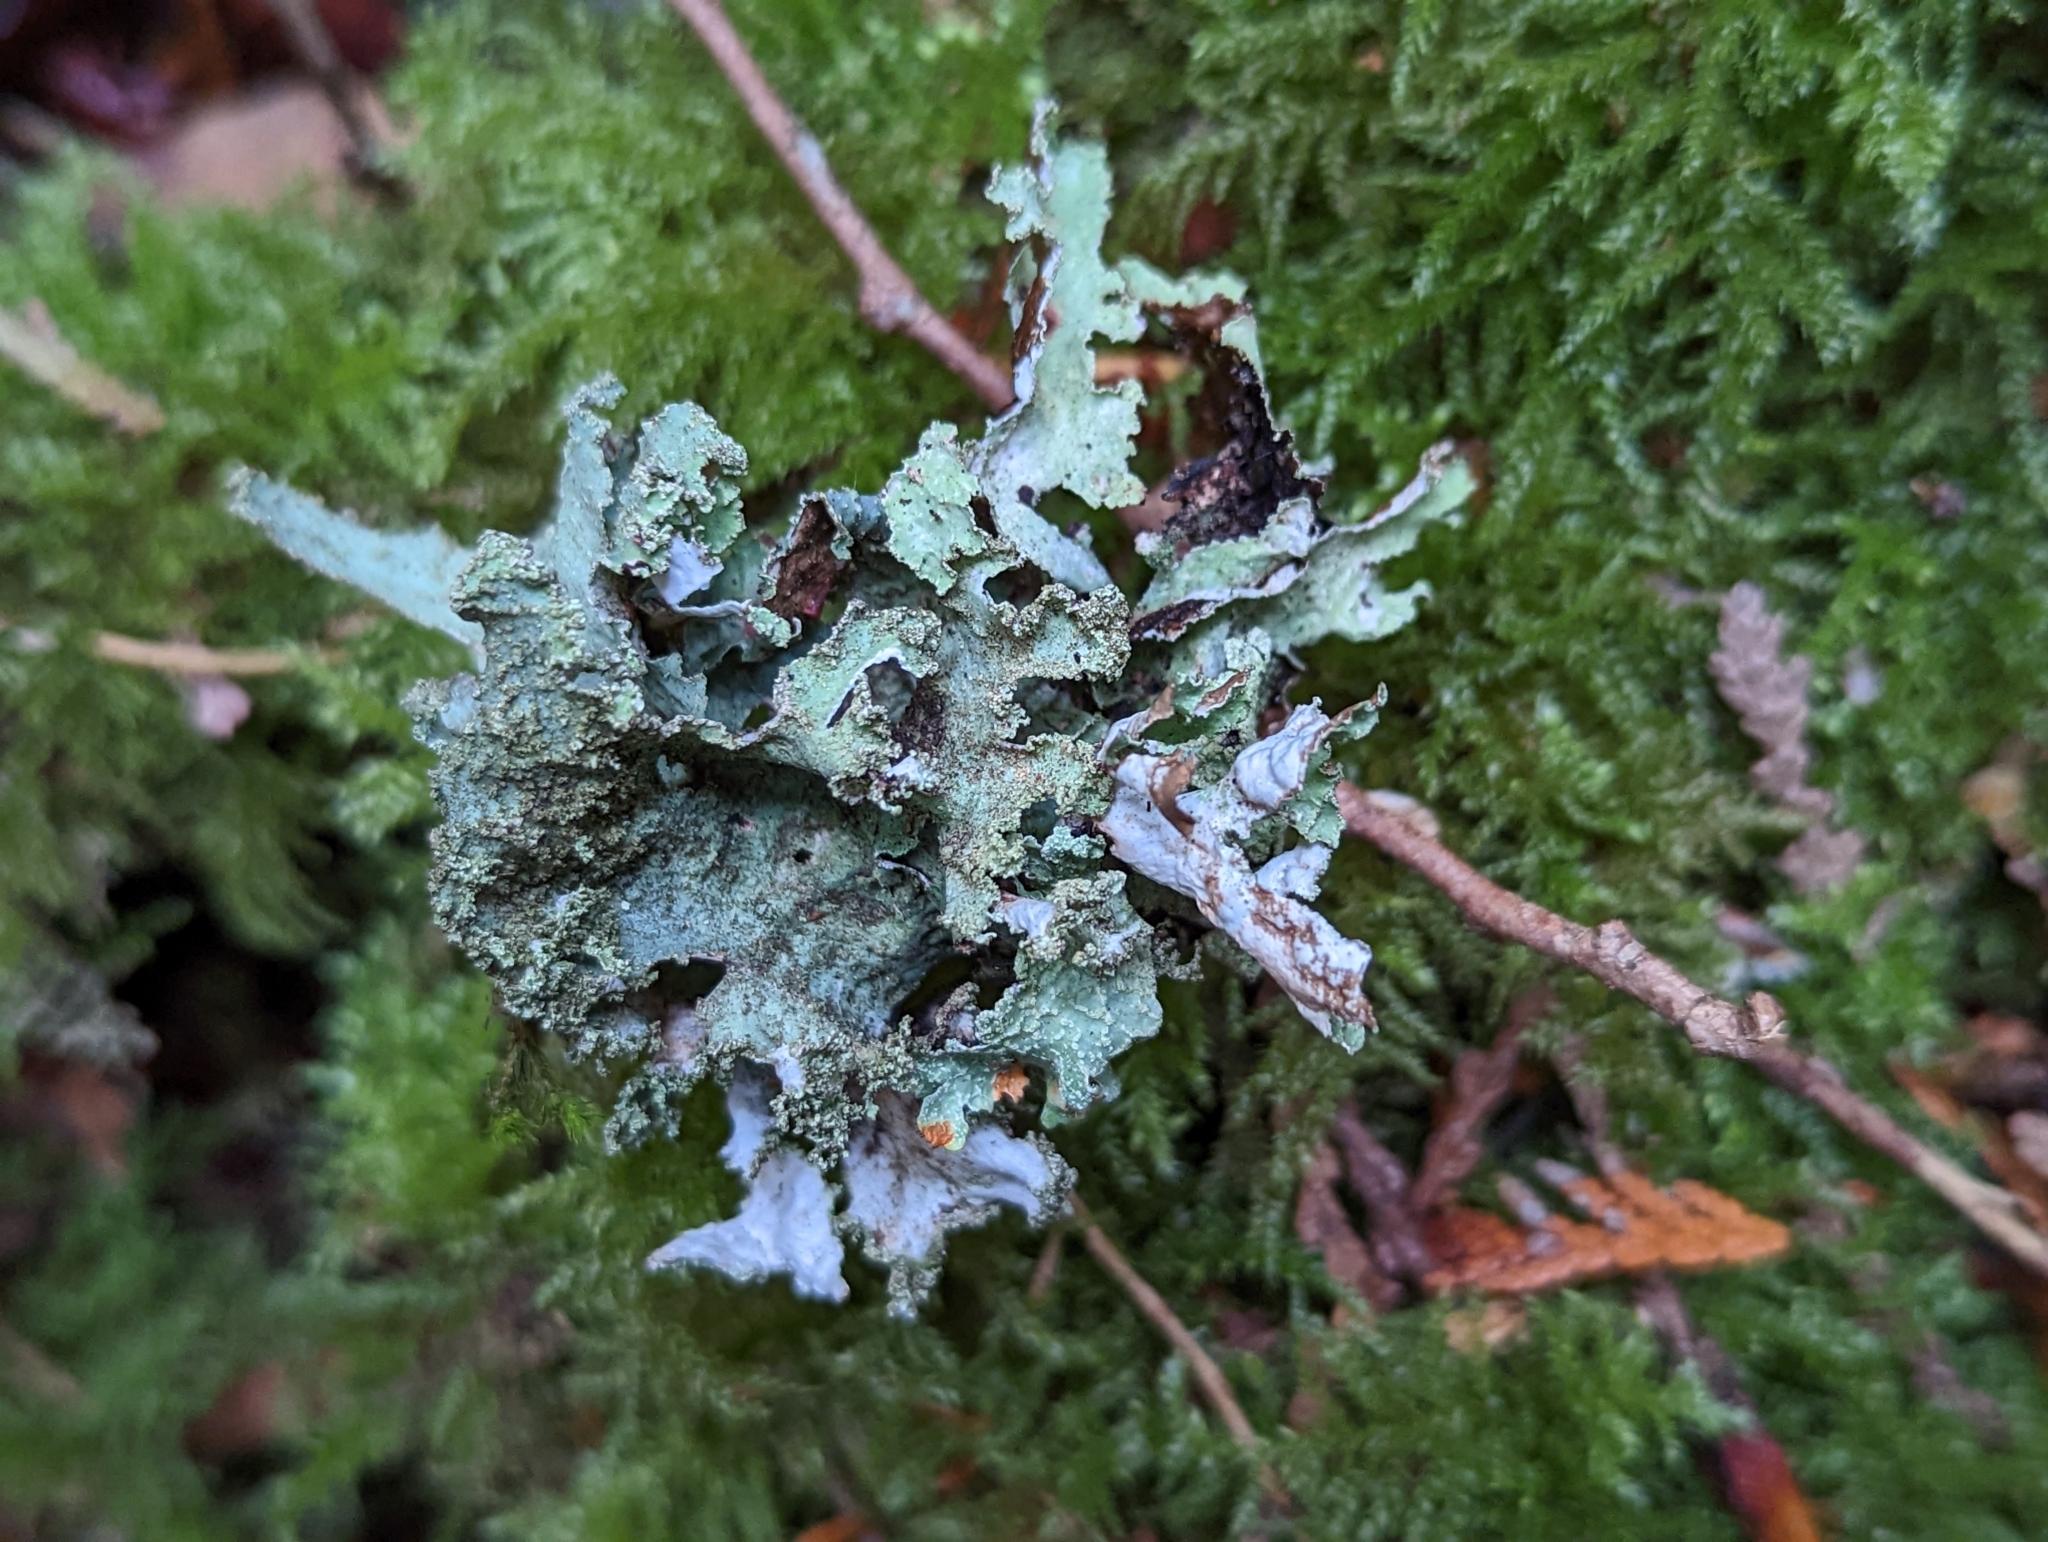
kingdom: Fungi
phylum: Ascomycota
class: Lecanoromycetes
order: Lecanorales
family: Parmeliaceae
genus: Platismatia
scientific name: Platismatia glauca
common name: Varied rag lichen
